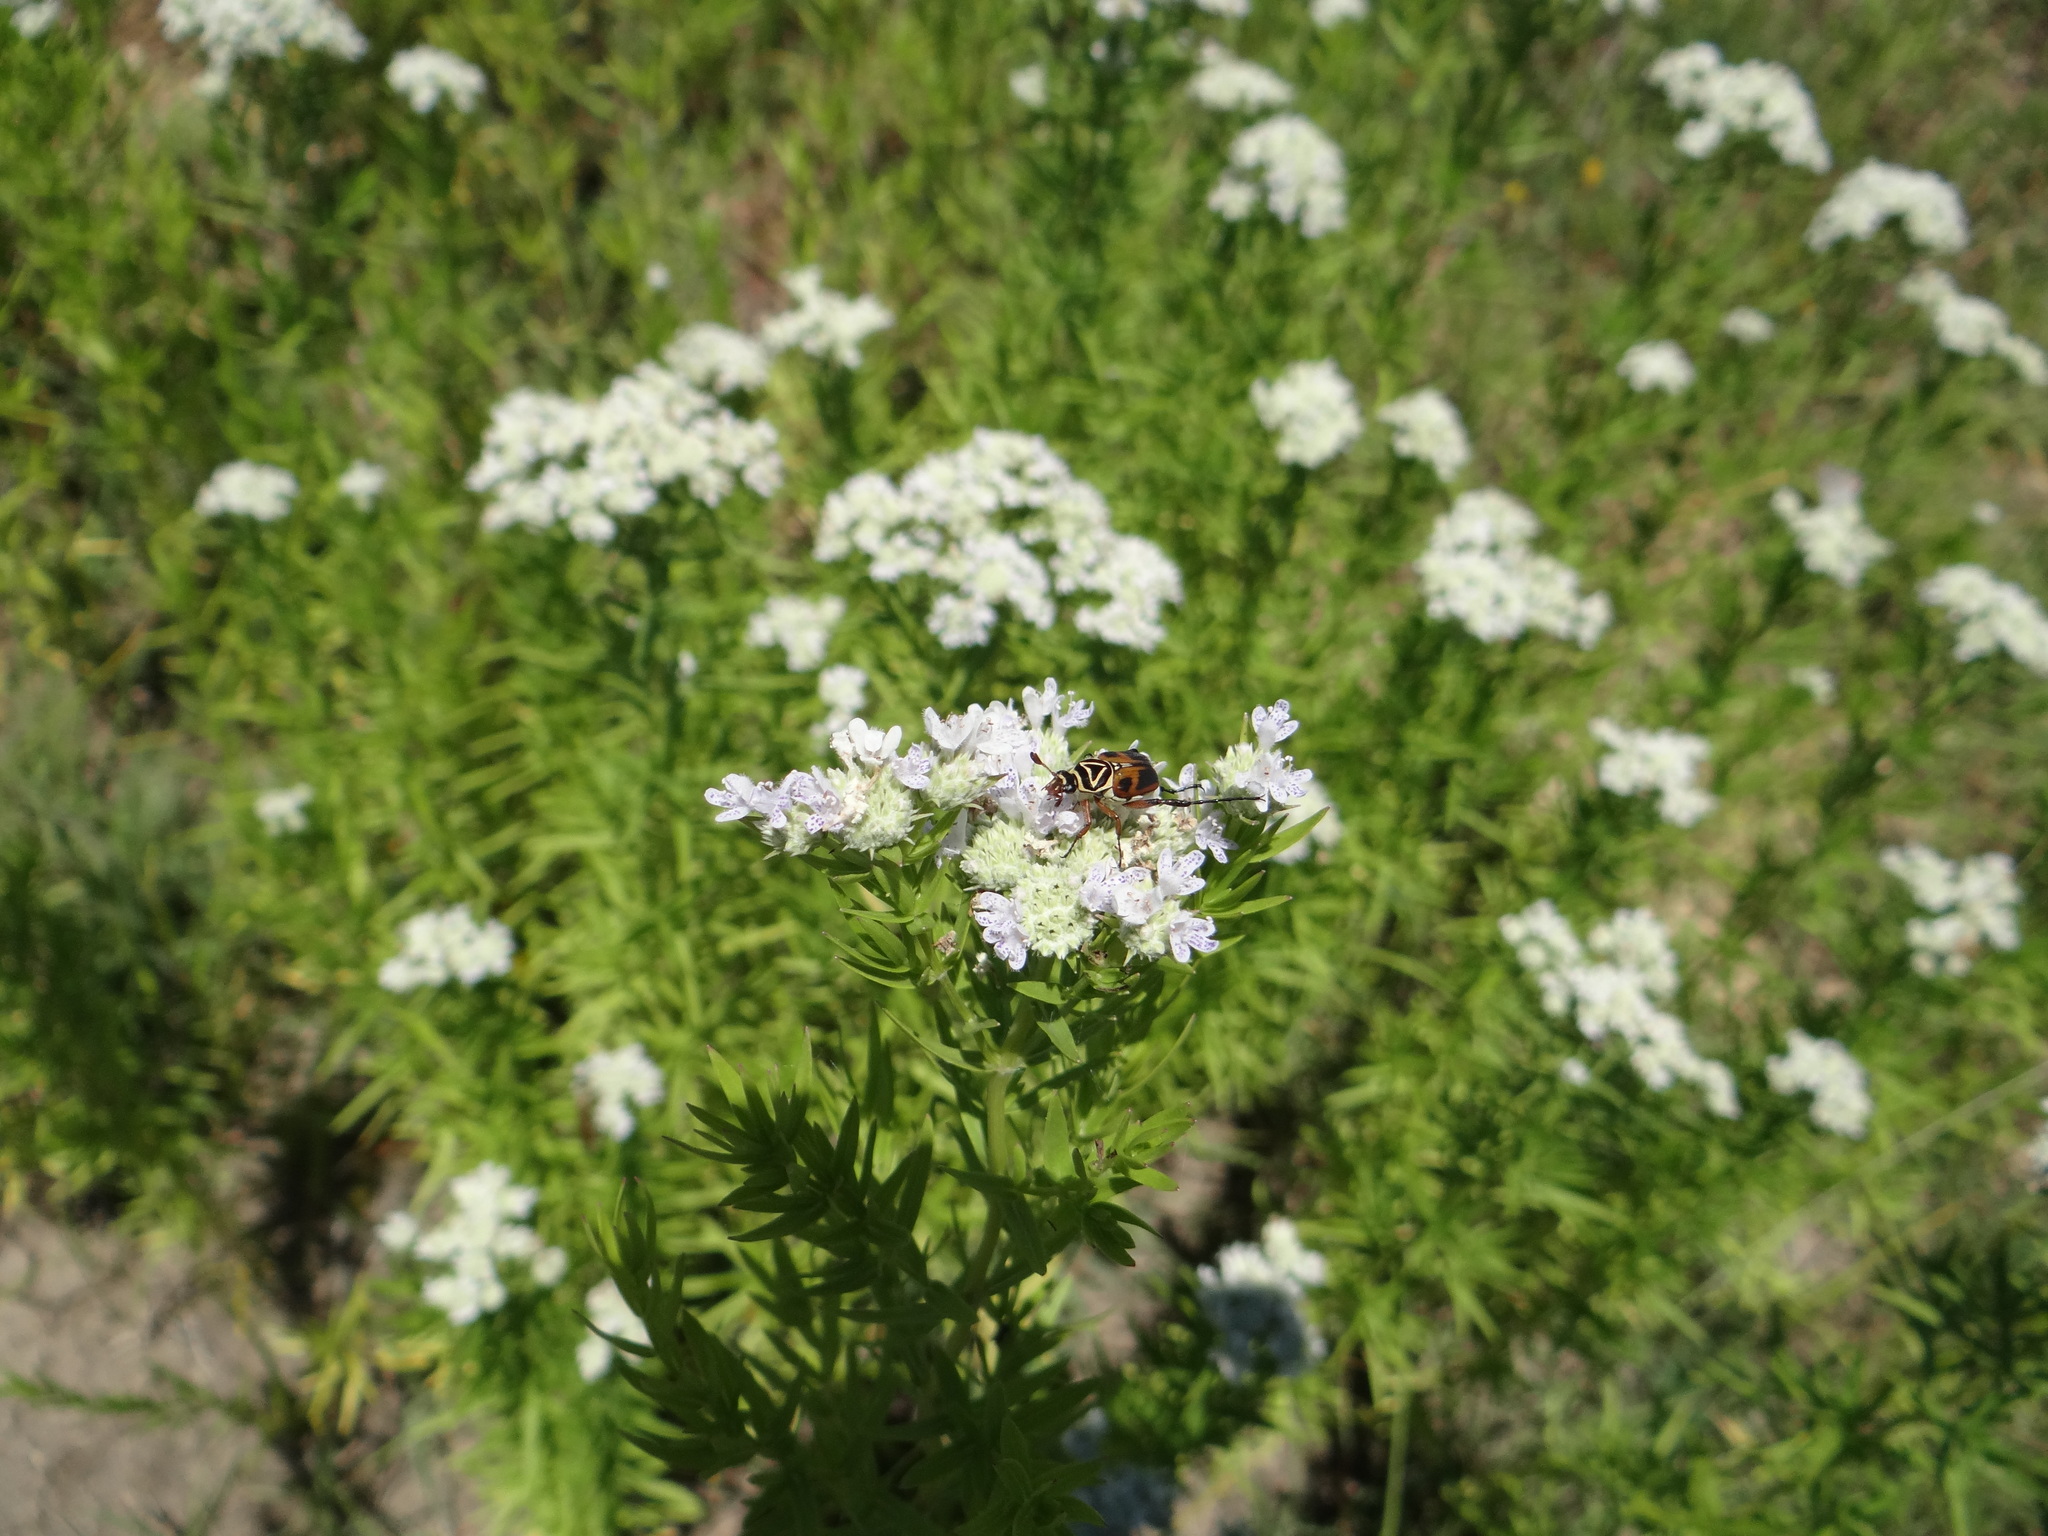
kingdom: Animalia
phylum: Arthropoda
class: Insecta
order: Coleoptera
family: Scarabaeidae
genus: Trigonopeltastes
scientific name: Trigonopeltastes delta
